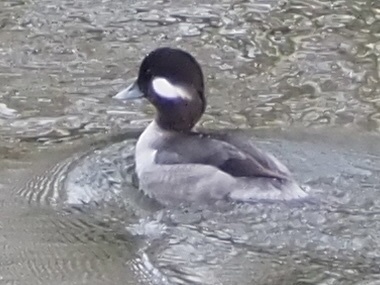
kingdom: Animalia
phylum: Chordata
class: Aves
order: Anseriformes
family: Anatidae
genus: Bucephala
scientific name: Bucephala albeola
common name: Bufflehead
